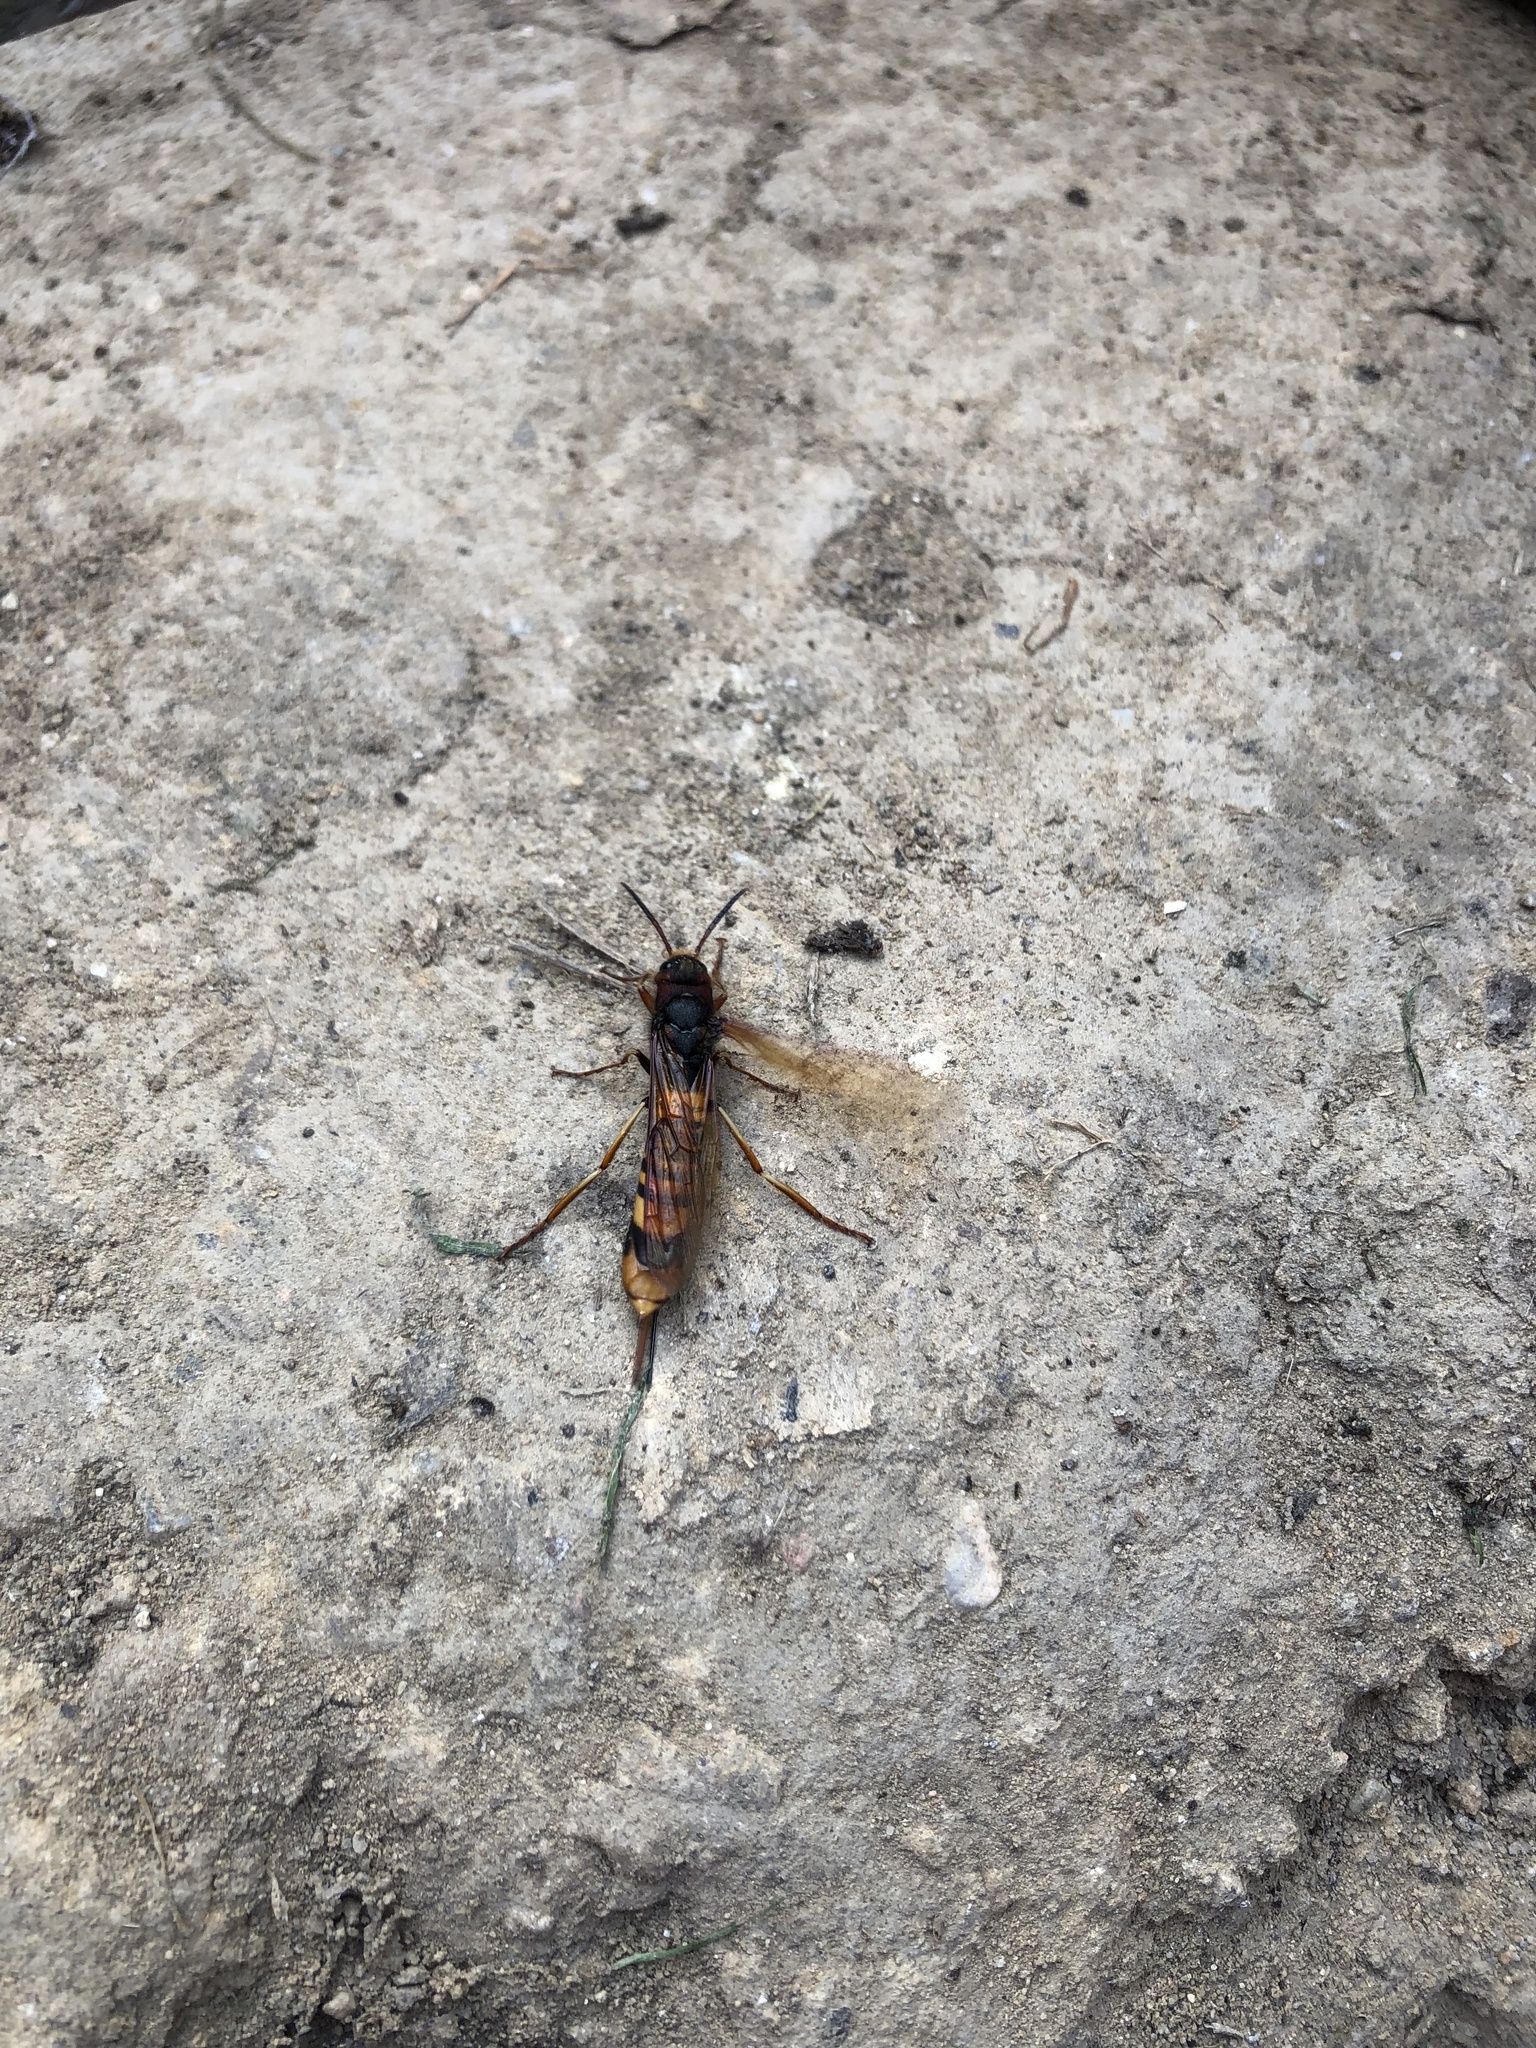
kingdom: Animalia
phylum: Arthropoda
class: Insecta
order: Hymenoptera
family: Siricidae
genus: Tremex
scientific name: Tremex fuscicornis
